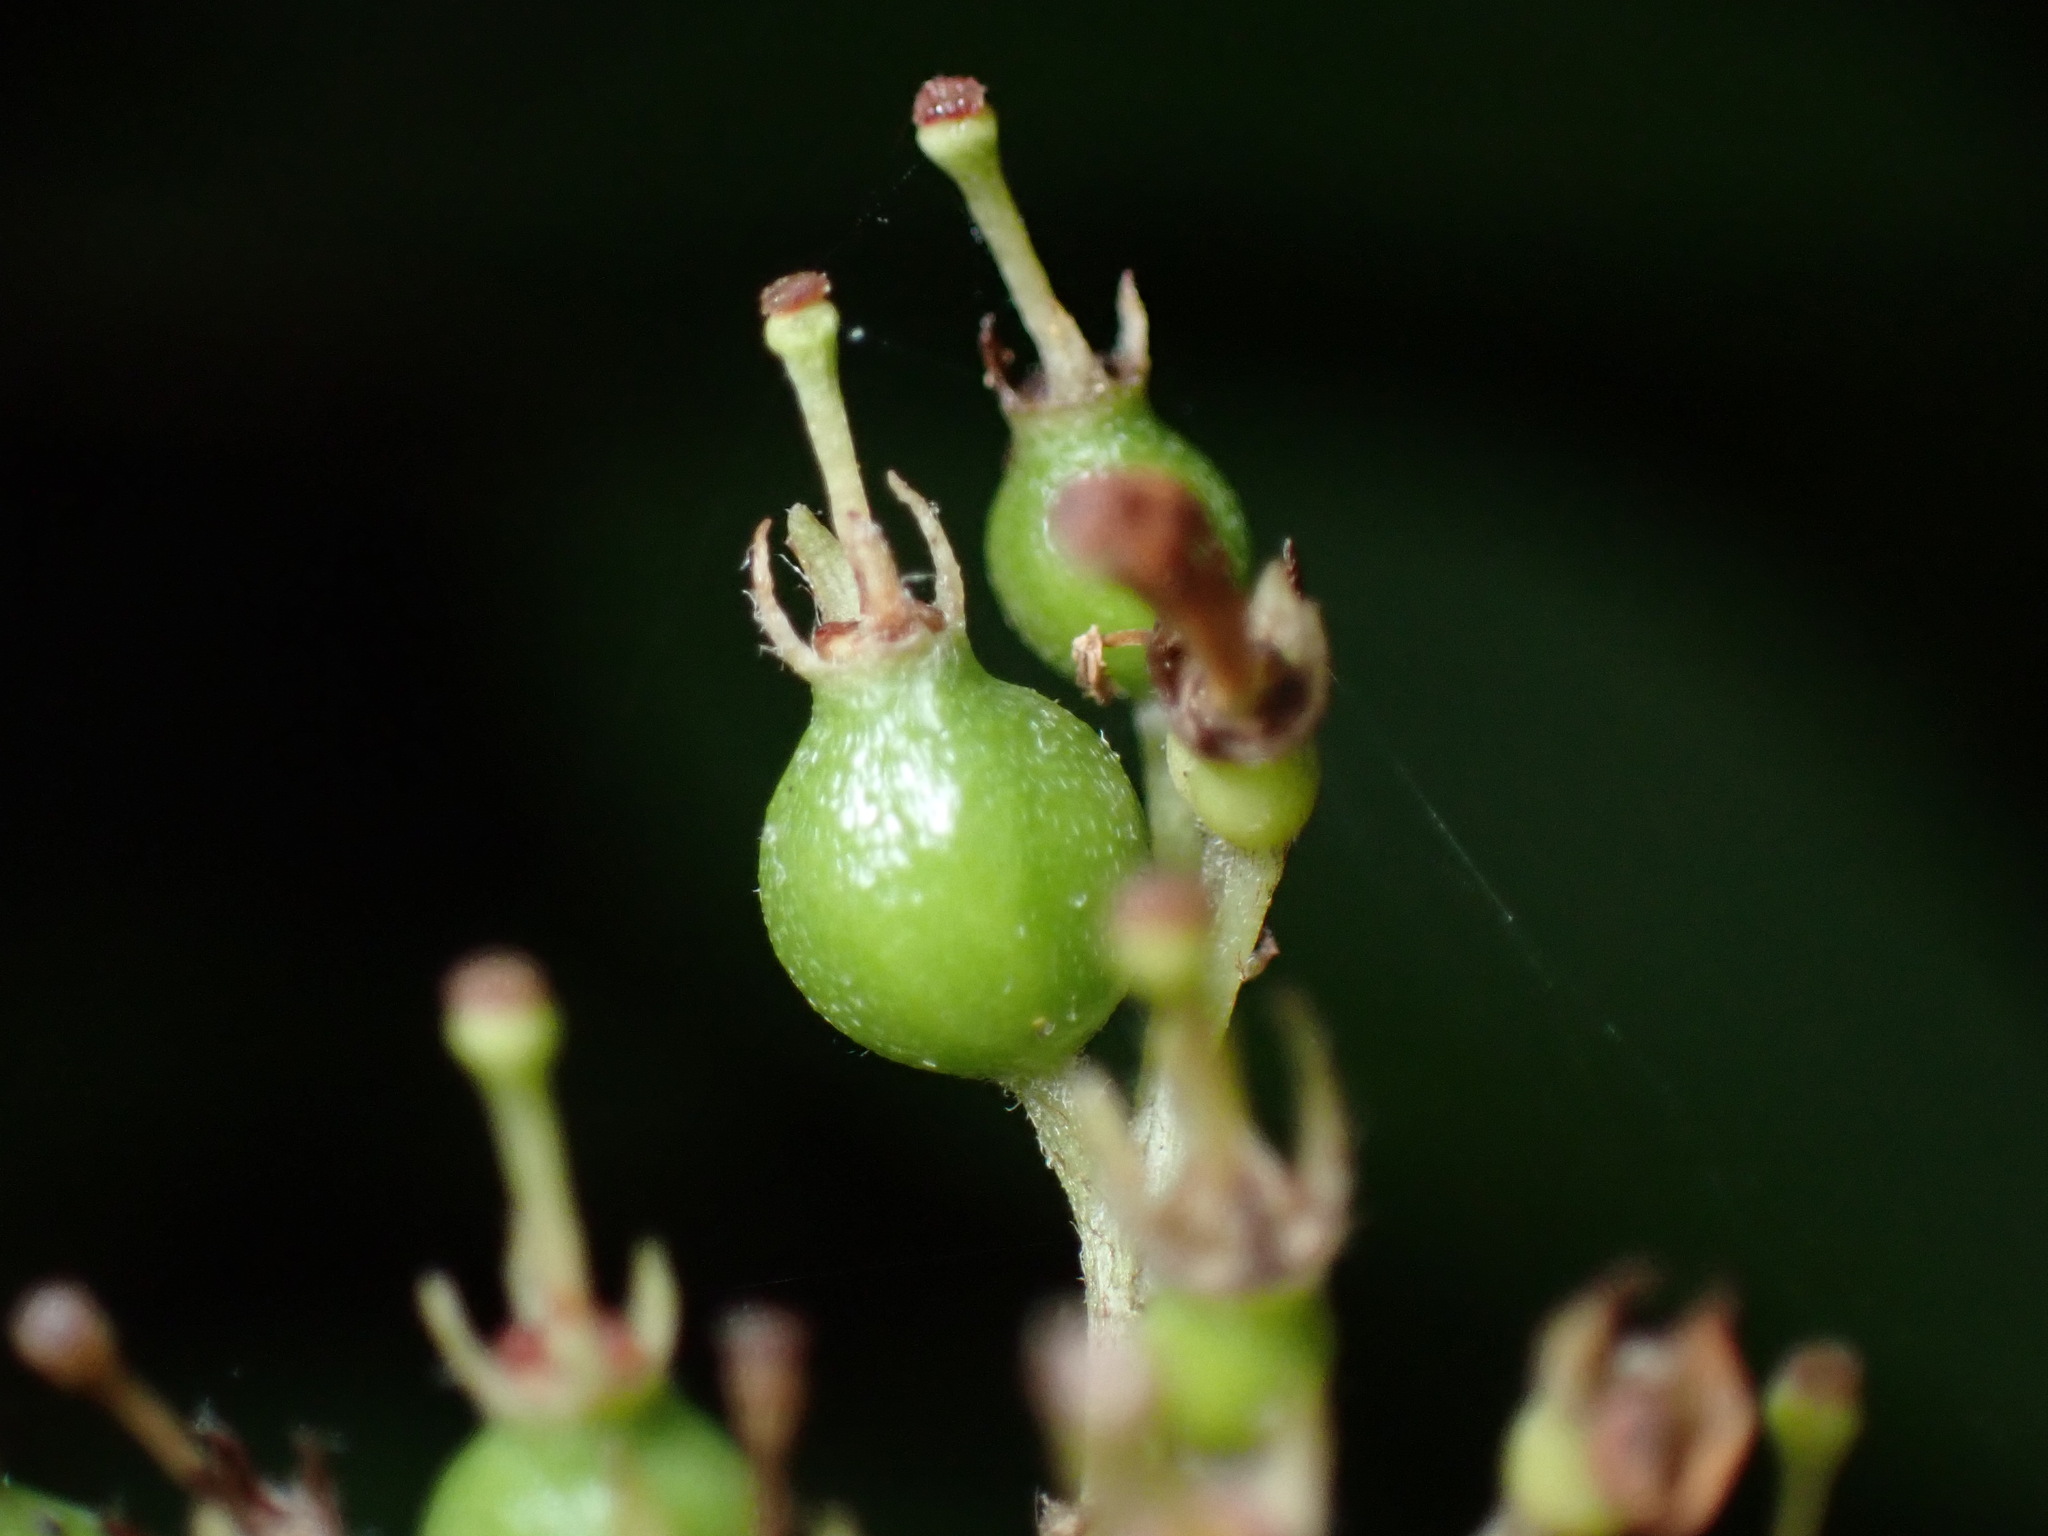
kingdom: Plantae
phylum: Tracheophyta
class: Magnoliopsida
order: Cornales
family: Cornaceae
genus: Cornus
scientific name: Cornus amomum
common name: Silky dogwood
